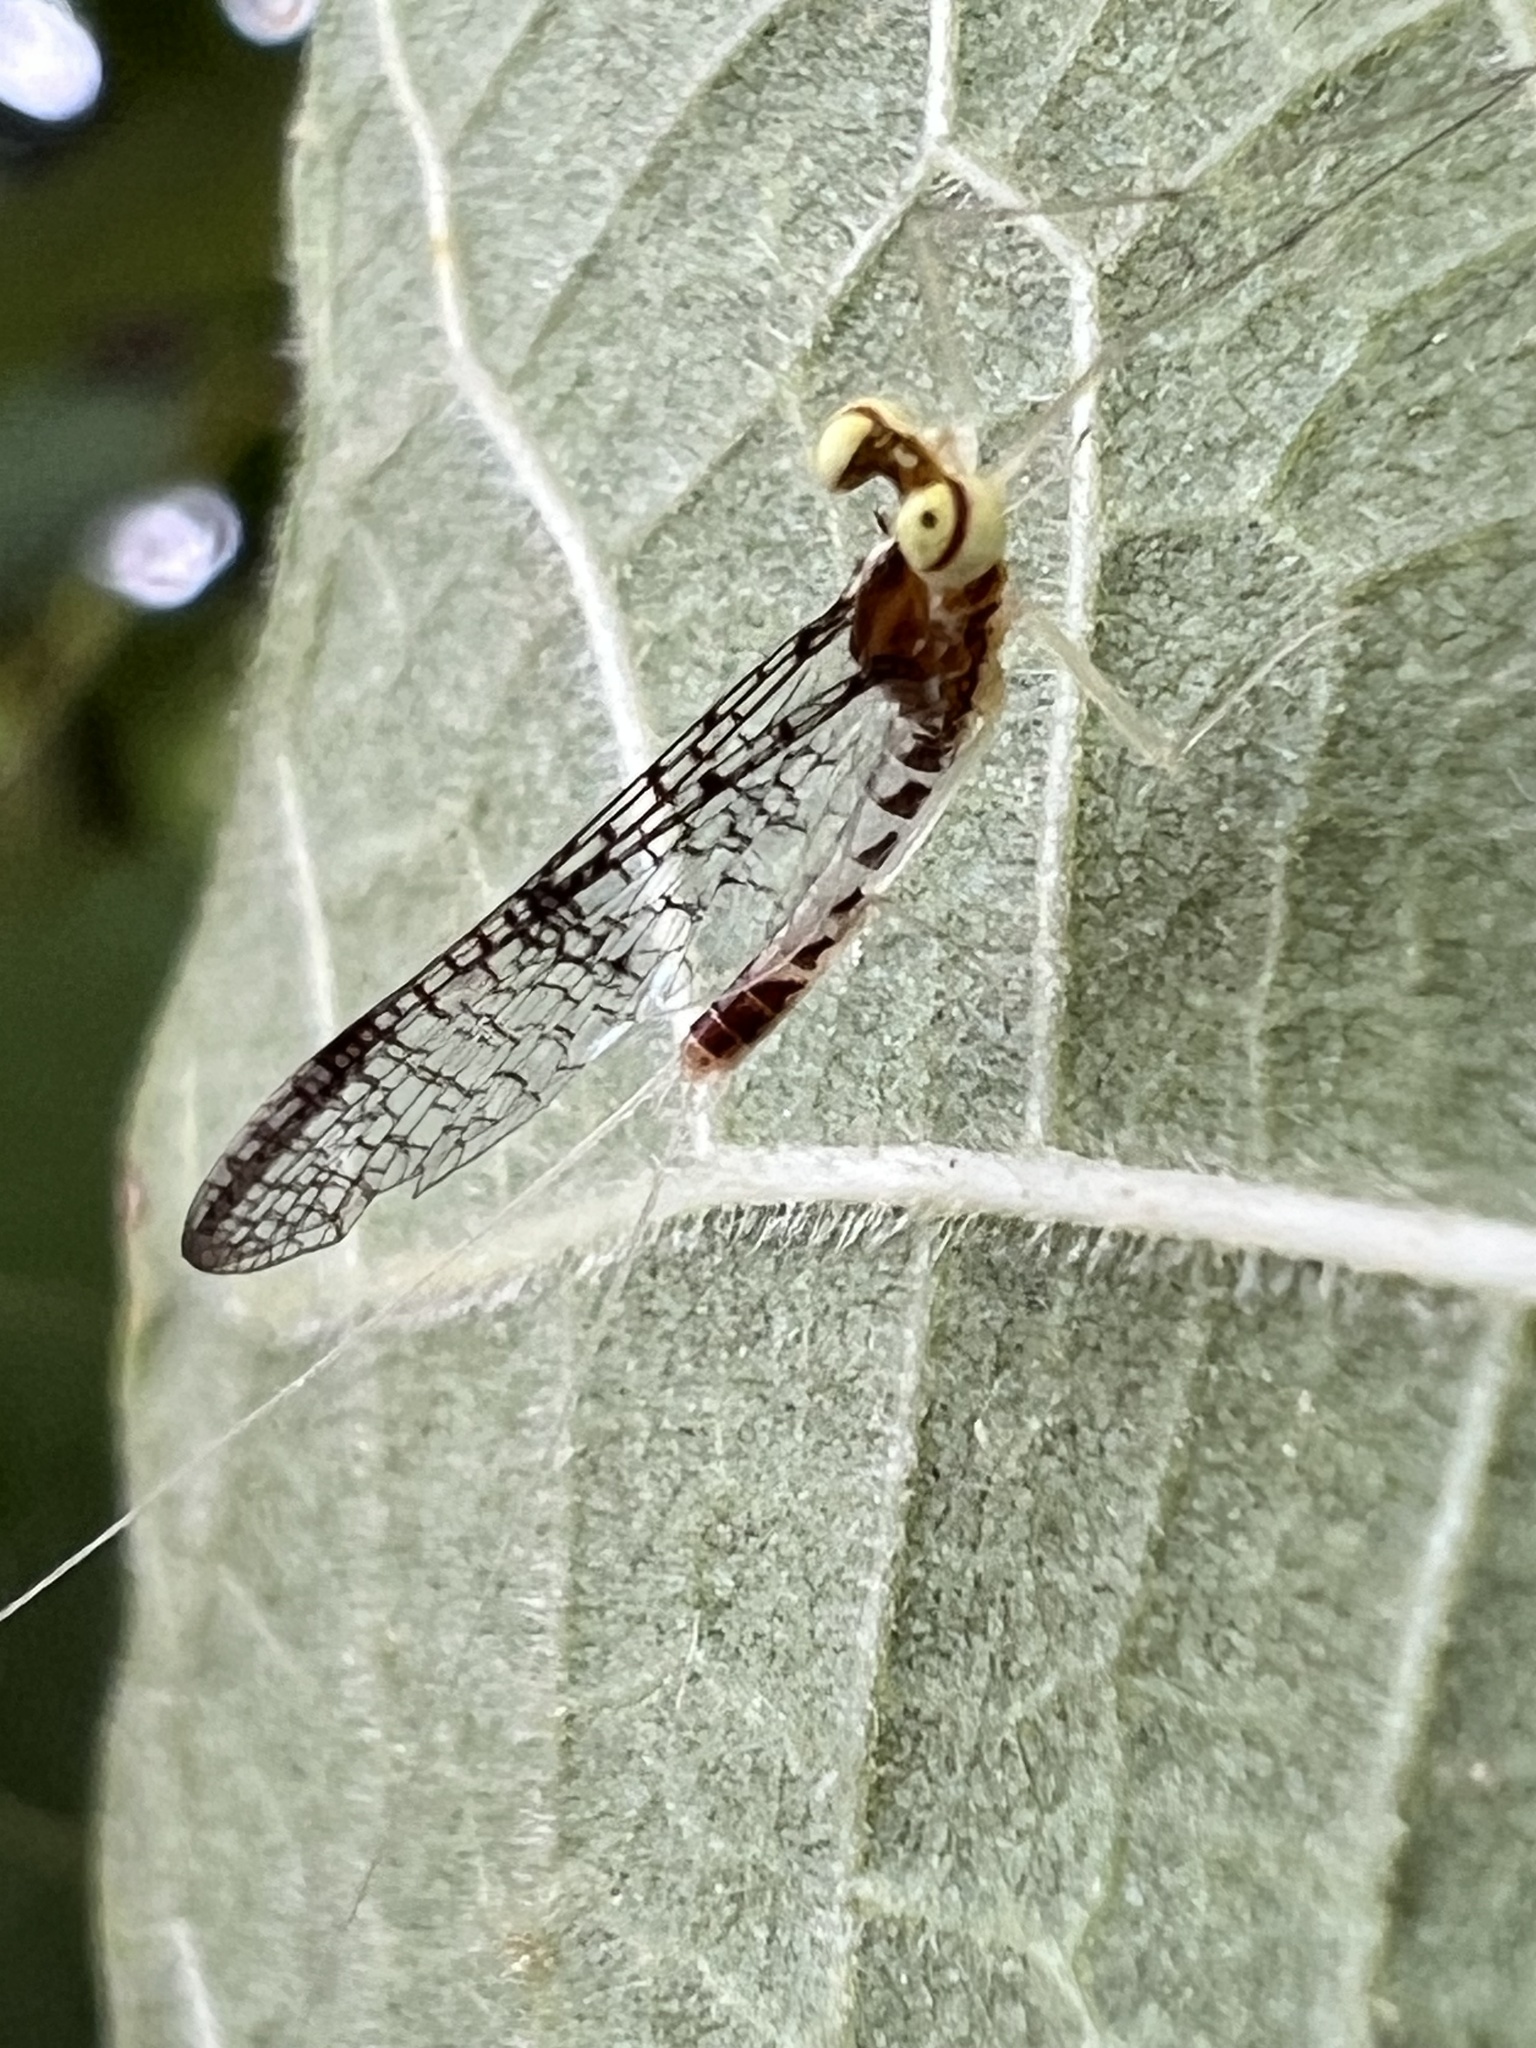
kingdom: Animalia
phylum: Arthropoda
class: Insecta
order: Ephemeroptera
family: Heptageniidae
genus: Leucrocuta
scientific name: Leucrocuta aphrodite
